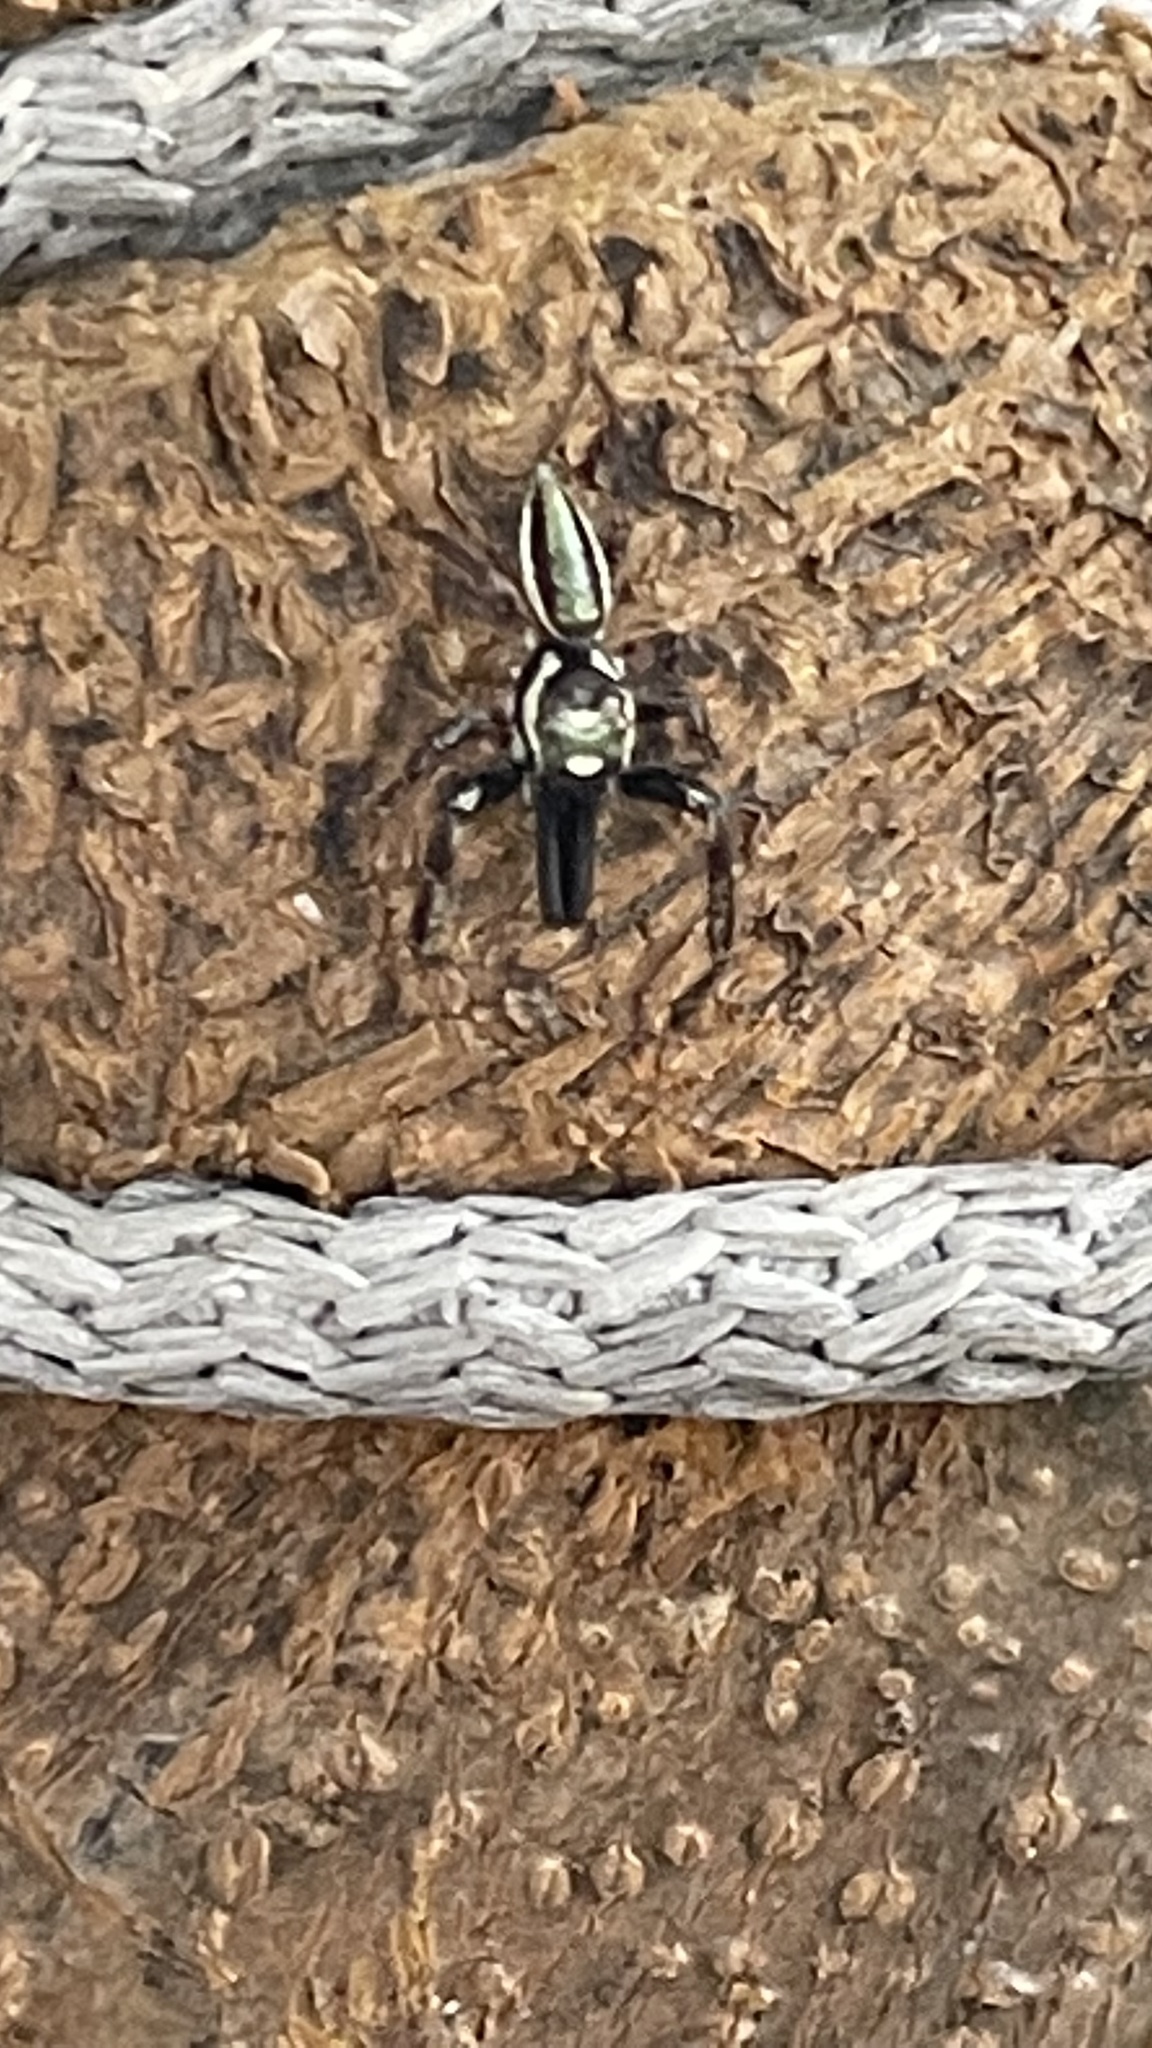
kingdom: Animalia
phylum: Arthropoda
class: Arachnida
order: Araneae
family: Salticidae
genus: Bagheera
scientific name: Bagheera prosper
